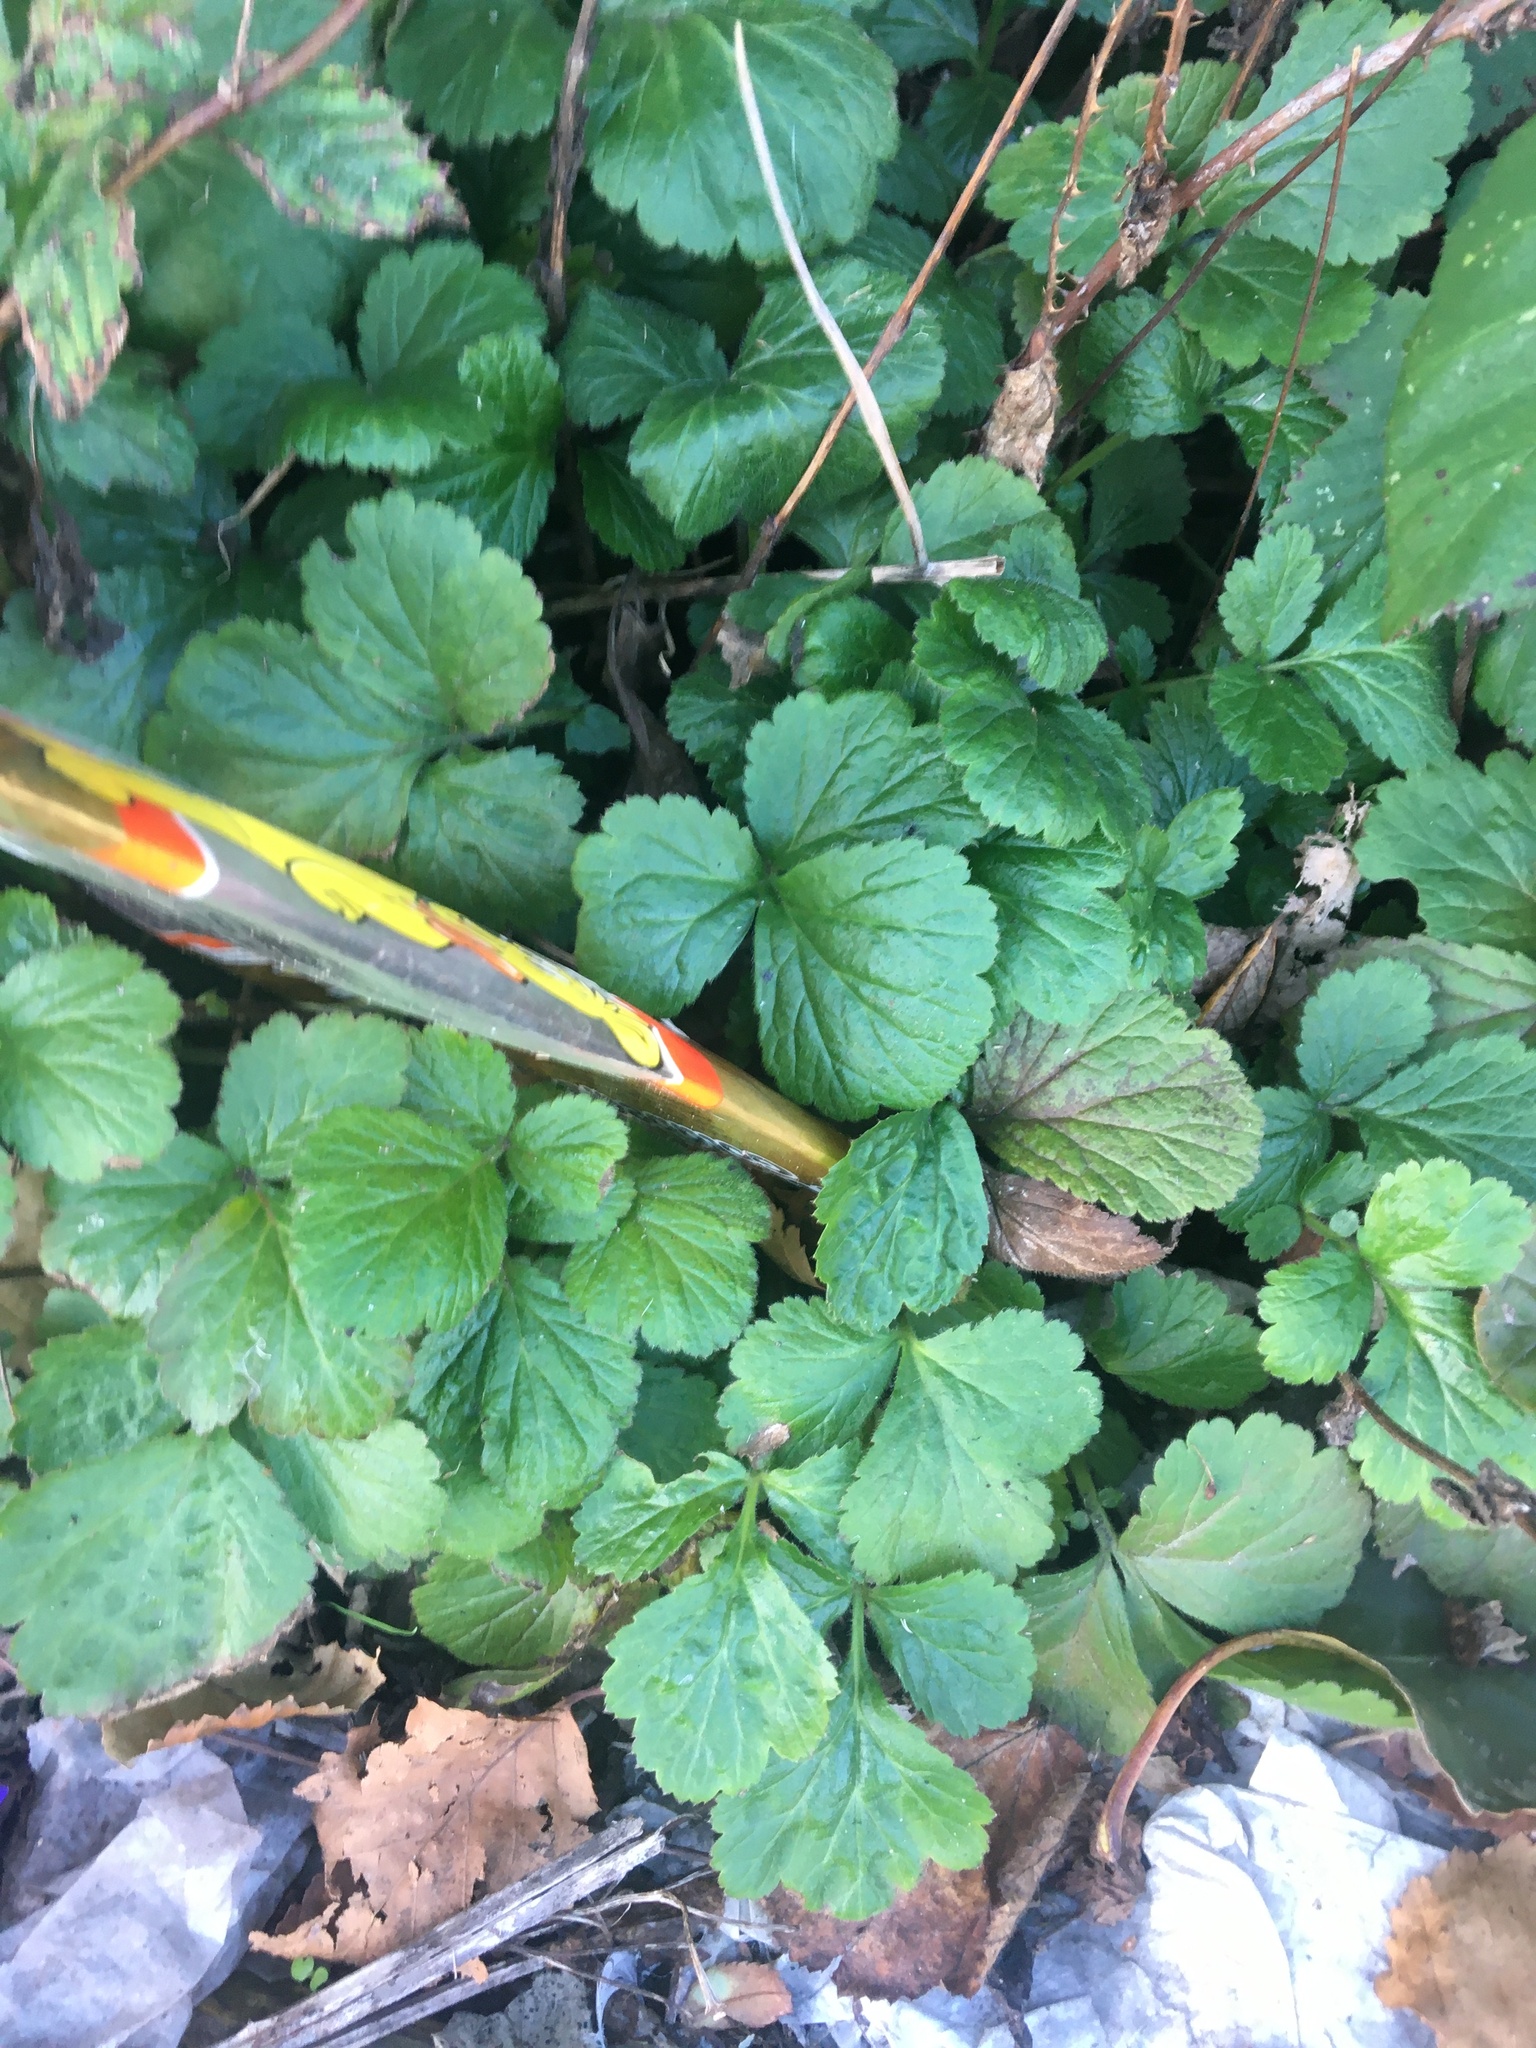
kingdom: Plantae
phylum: Tracheophyta
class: Magnoliopsida
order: Rosales
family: Rosaceae
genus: Geum
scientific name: Geum urbanum
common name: Wood avens
